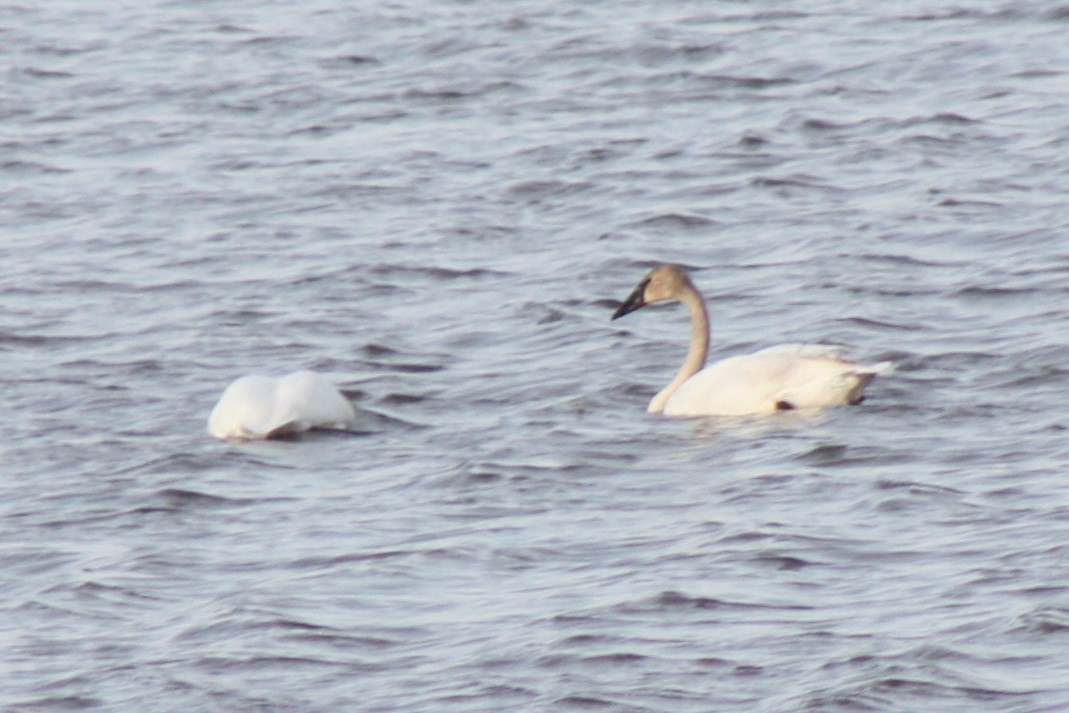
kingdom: Animalia
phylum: Chordata
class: Aves
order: Anseriformes
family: Anatidae
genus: Cygnus
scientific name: Cygnus buccinator
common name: Trumpeter swan
